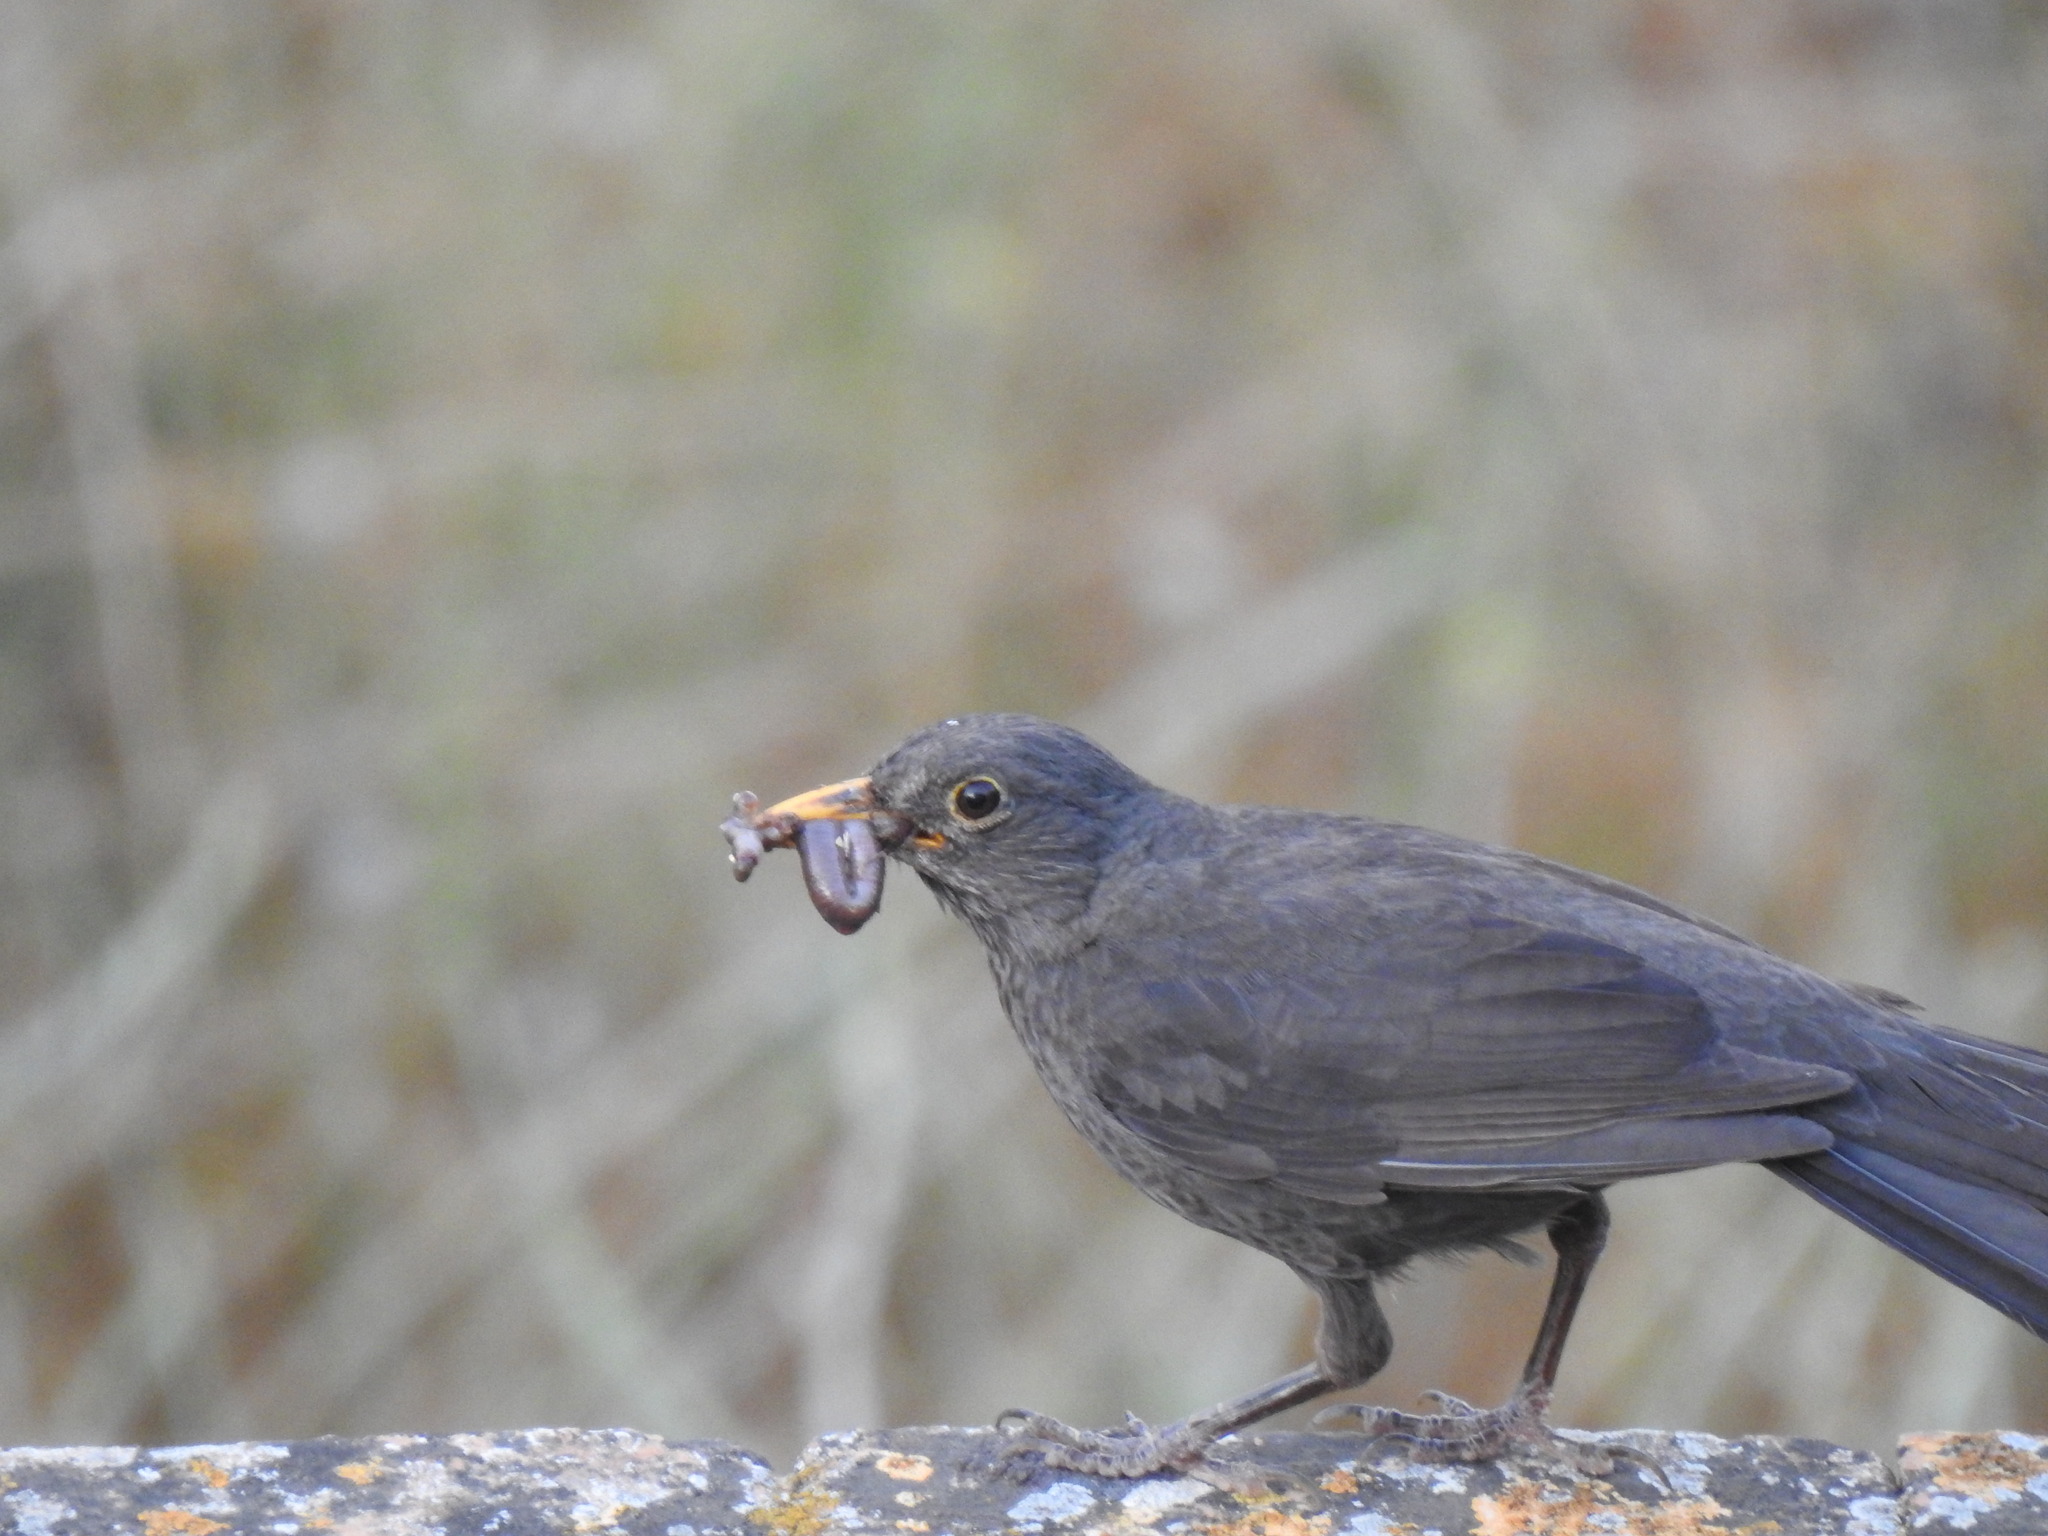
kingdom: Animalia
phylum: Chordata
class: Aves
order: Passeriformes
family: Turdidae
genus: Turdus
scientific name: Turdus merula
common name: Common blackbird
